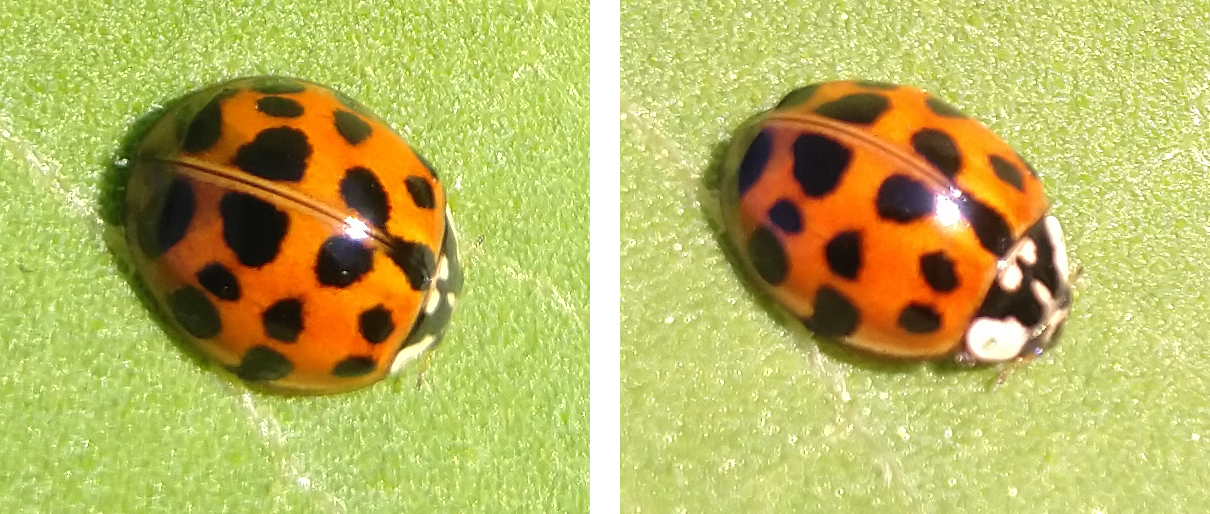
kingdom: Animalia
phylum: Arthropoda
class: Insecta
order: Coleoptera
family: Coccinellidae
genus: Harmonia
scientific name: Harmonia axyridis
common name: Harlequin ladybird
